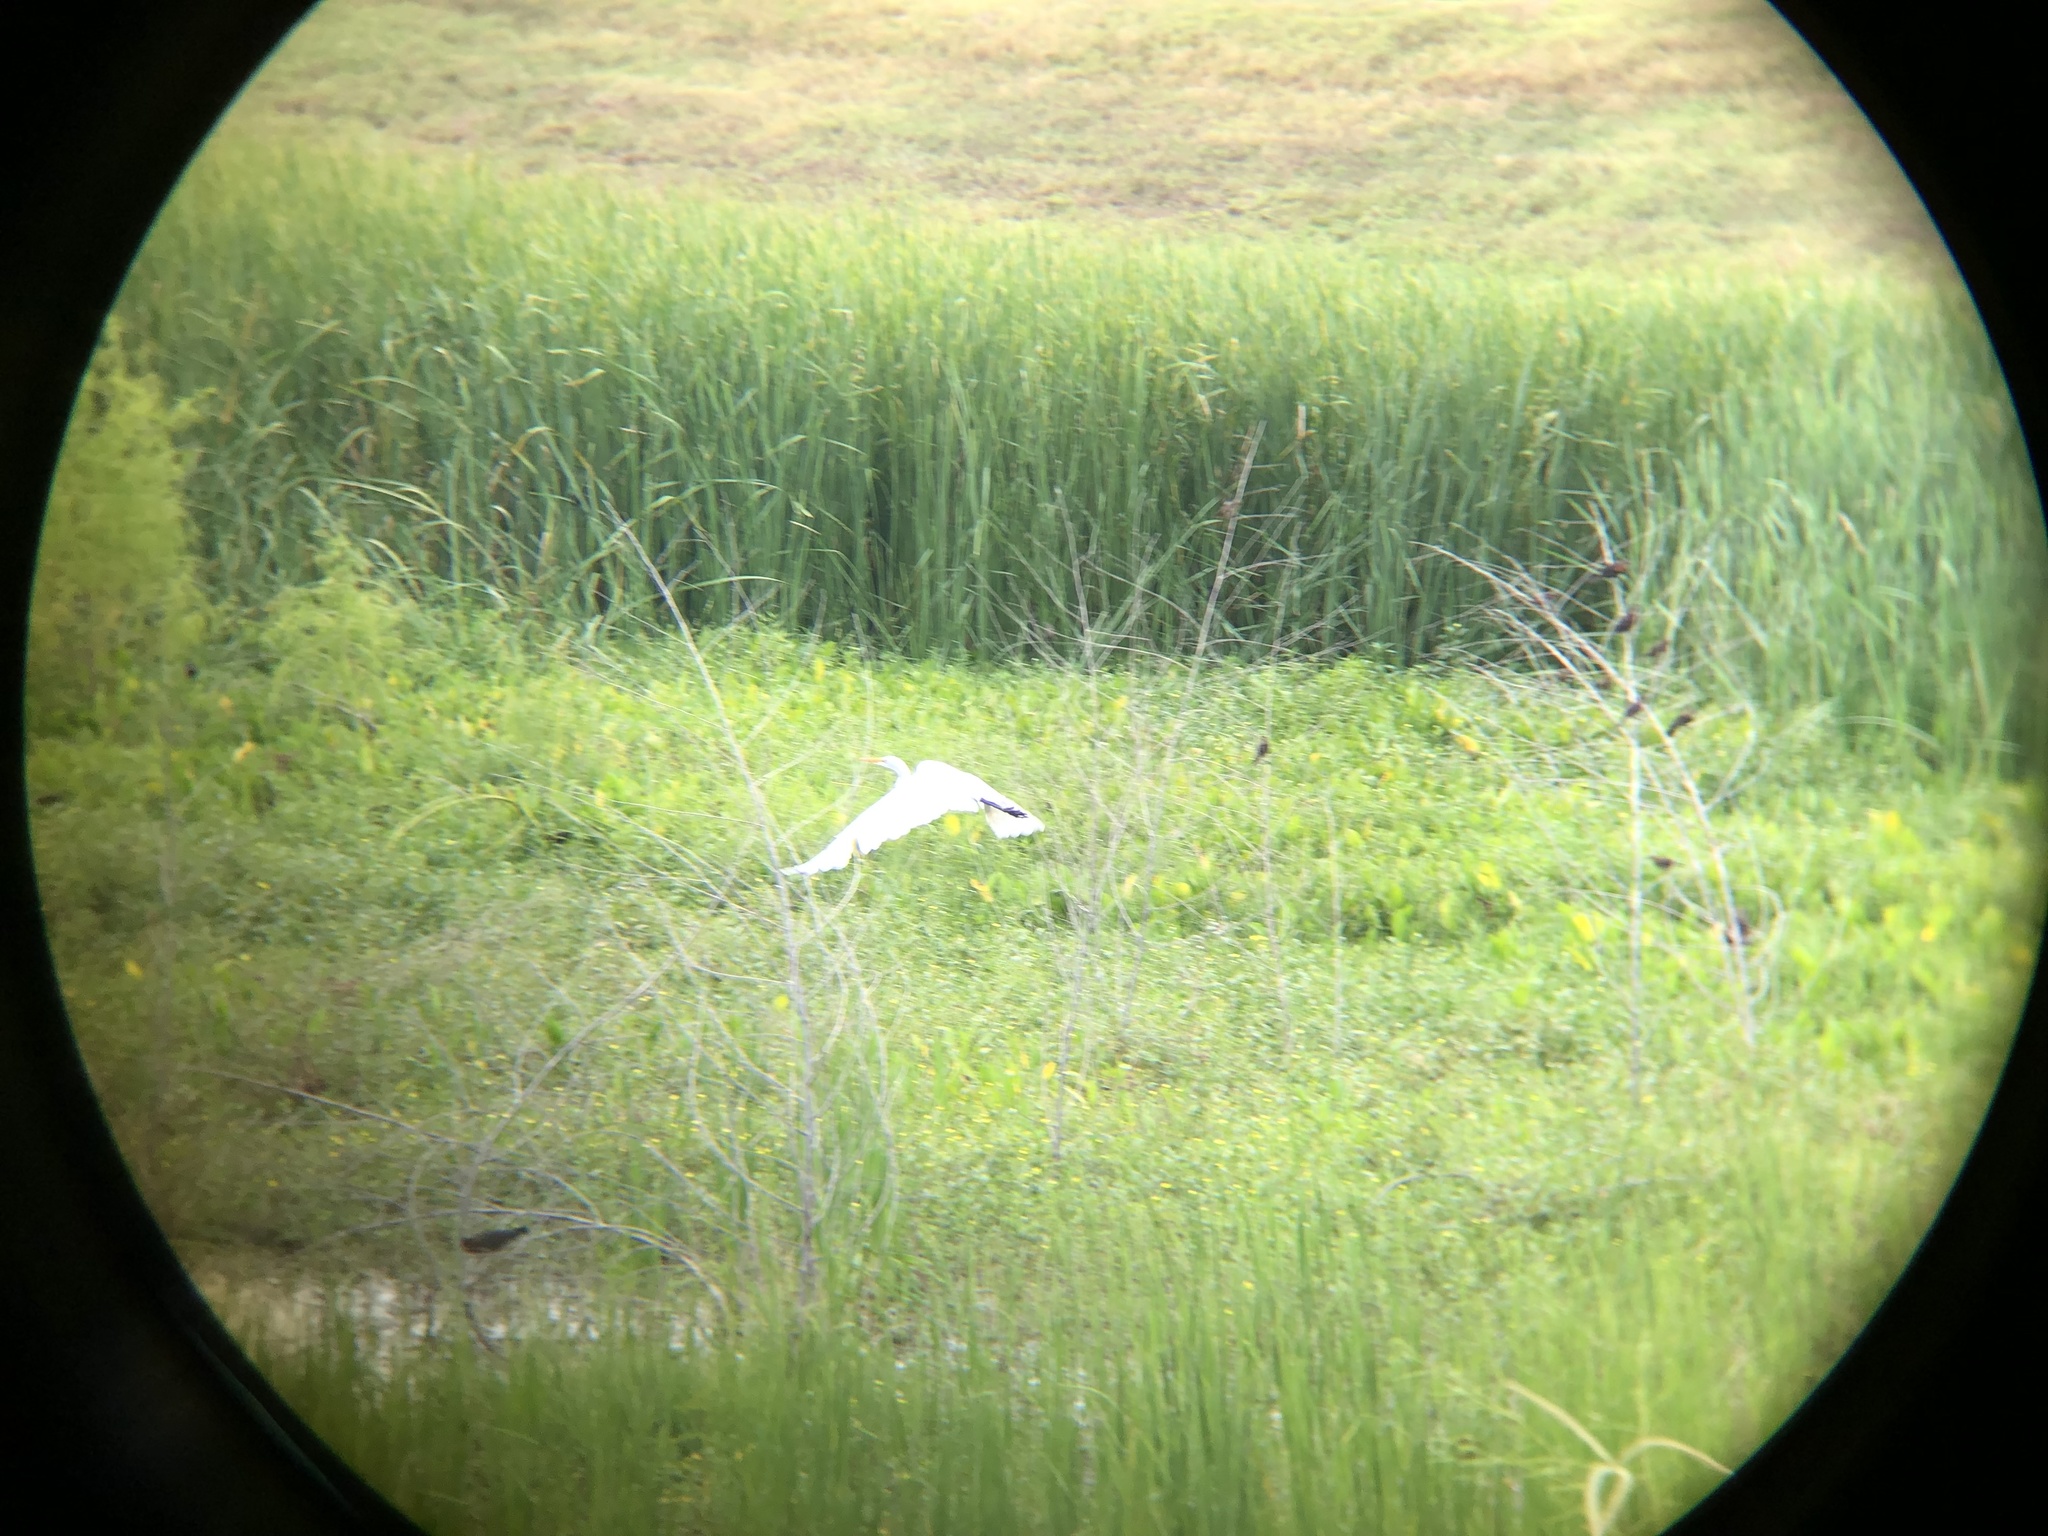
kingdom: Animalia
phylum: Chordata
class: Aves
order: Pelecaniformes
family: Ardeidae
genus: Ardea
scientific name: Ardea alba
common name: Great egret
